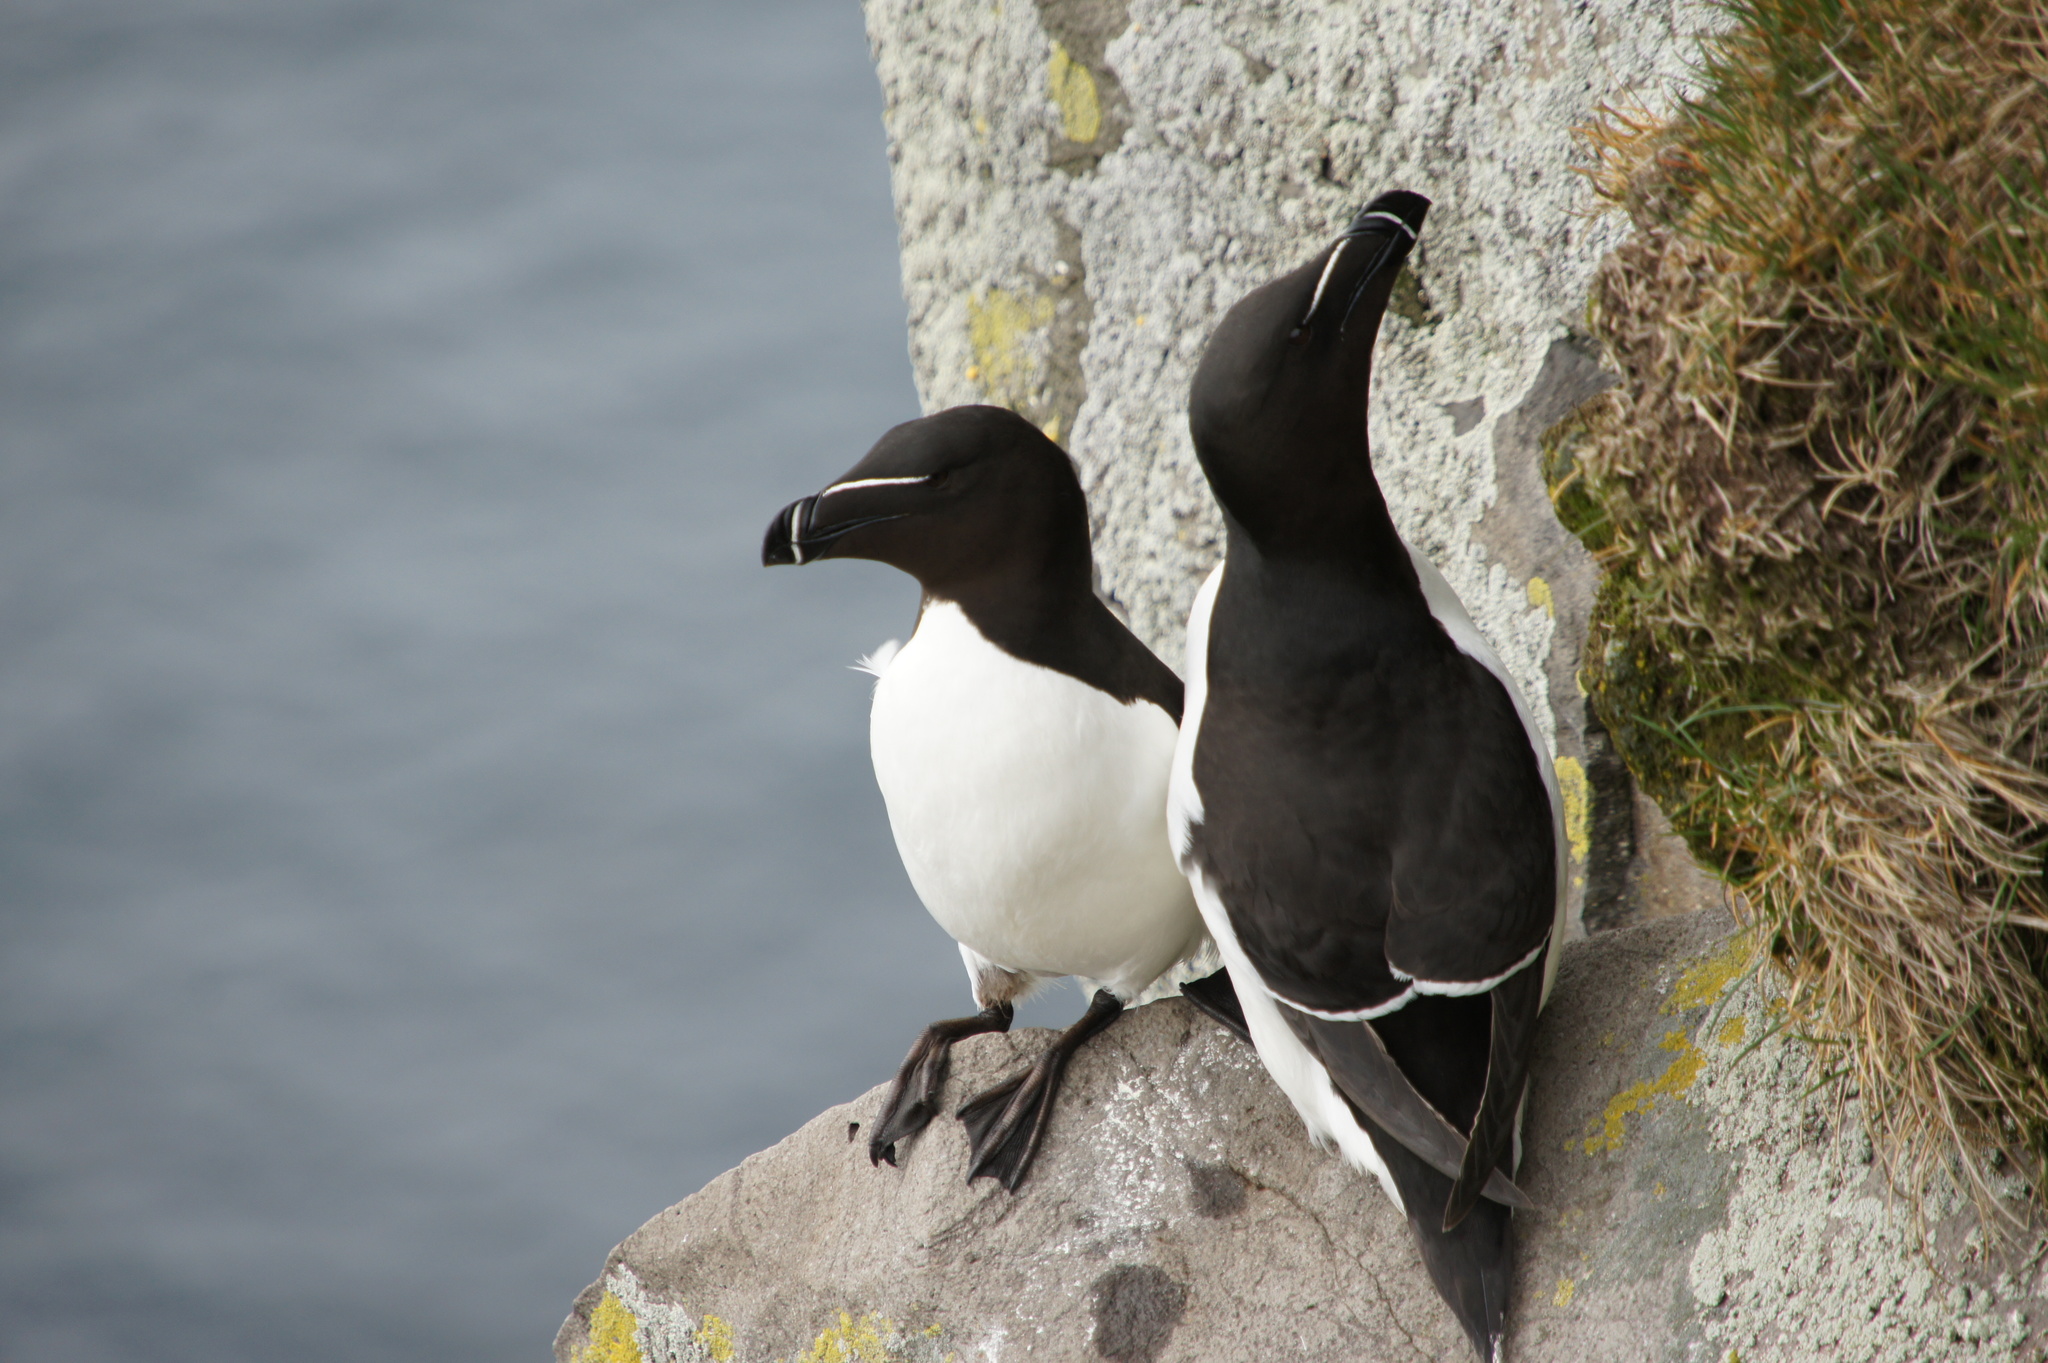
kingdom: Animalia
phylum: Chordata
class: Aves
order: Charadriiformes
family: Alcidae
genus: Alca
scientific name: Alca torda
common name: Razorbill
